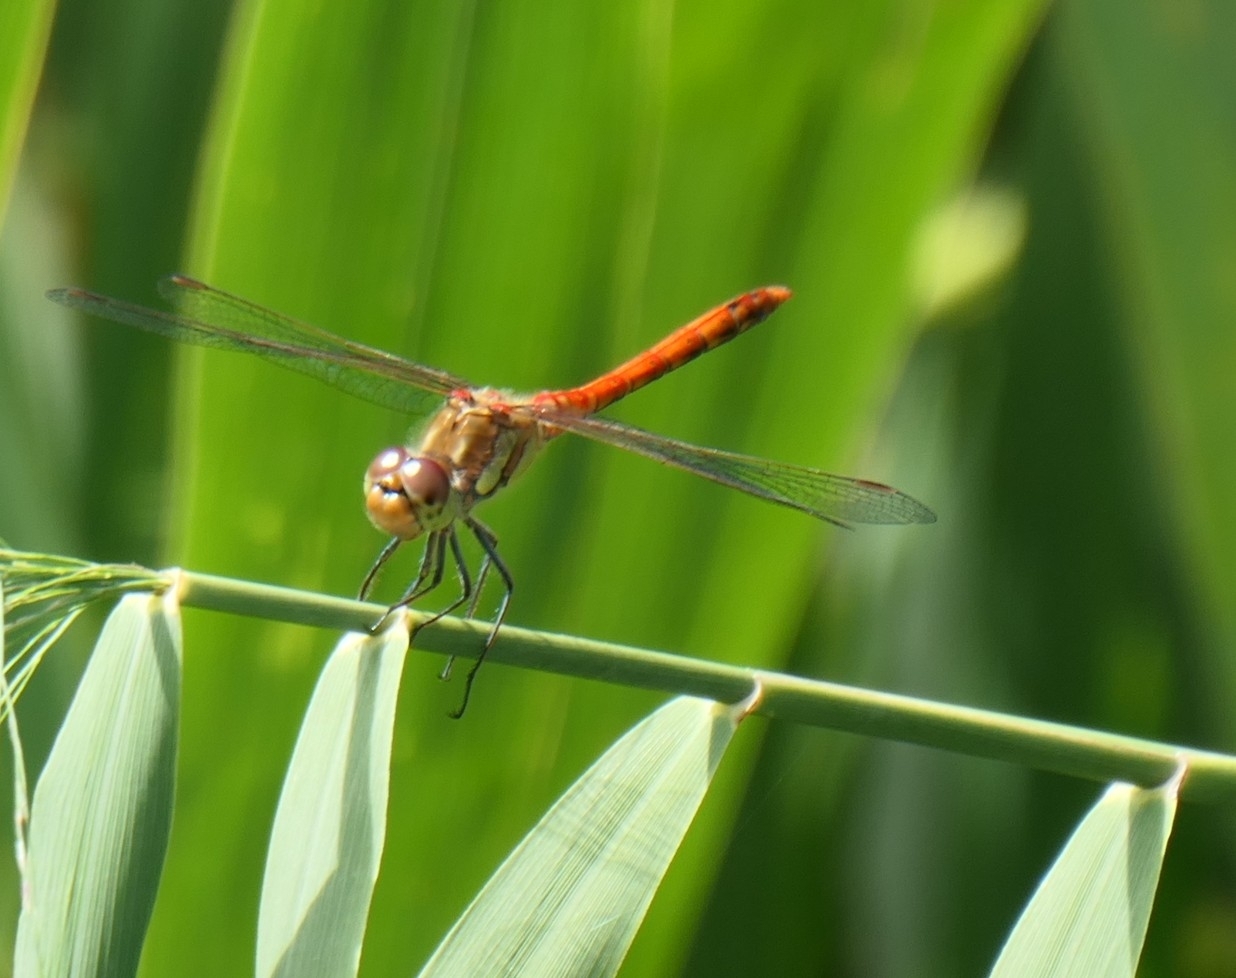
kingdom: Animalia
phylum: Arthropoda
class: Insecta
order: Odonata
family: Libellulidae
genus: Sympetrum
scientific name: Sympetrum striolatum
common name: Common darter
